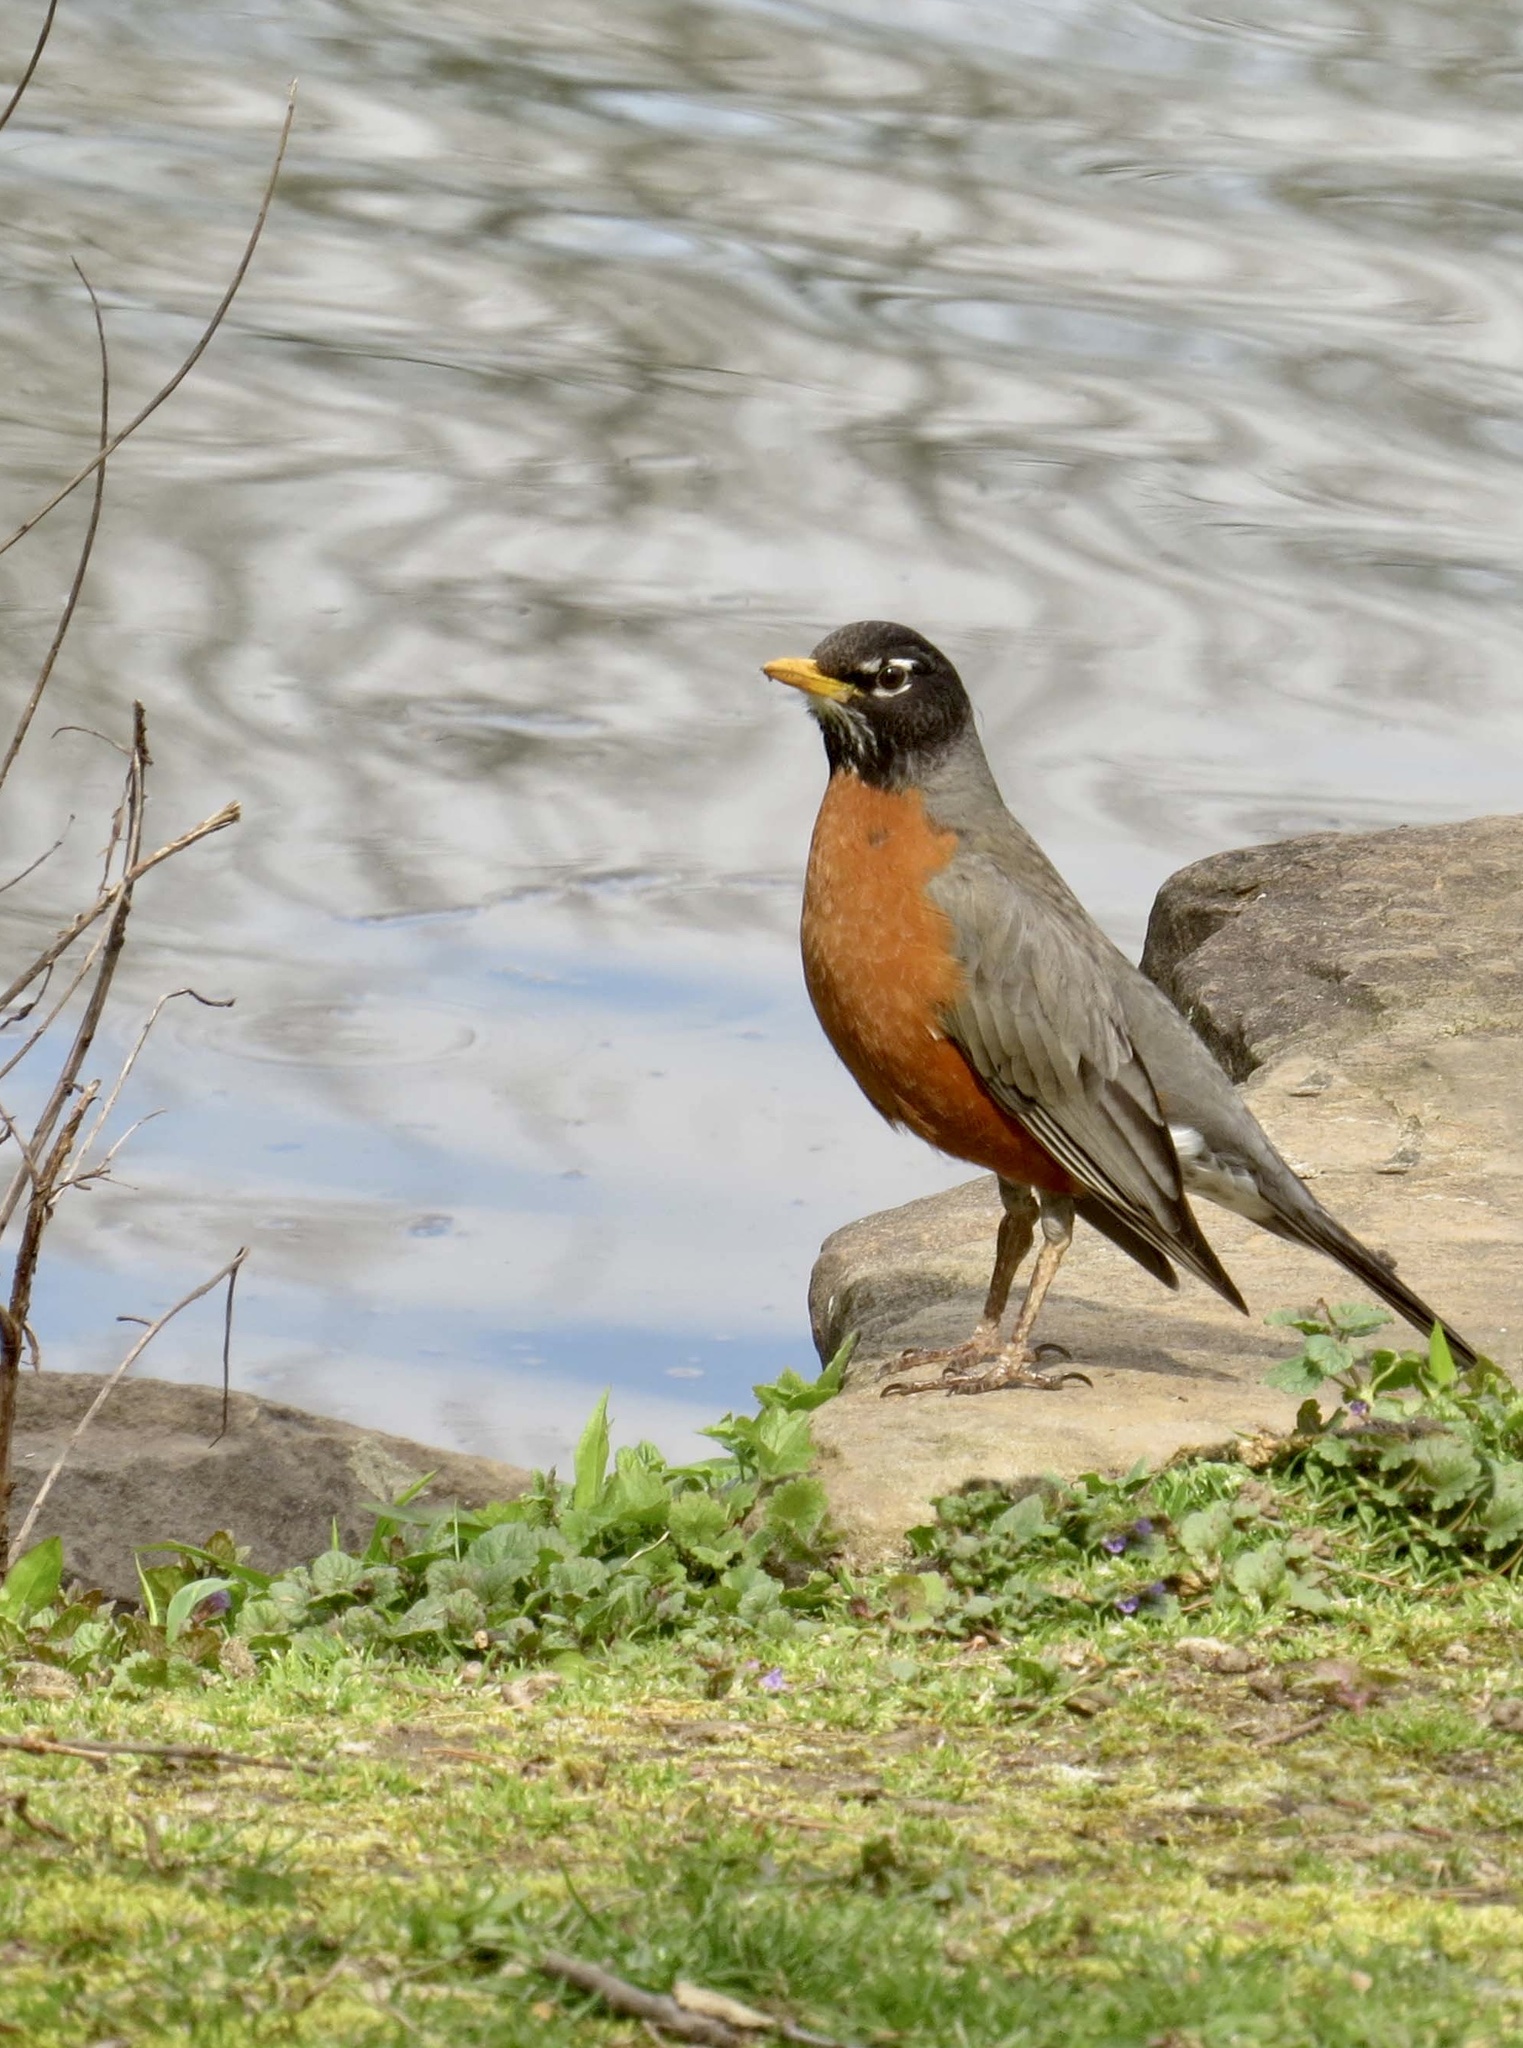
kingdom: Animalia
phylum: Chordata
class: Aves
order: Passeriformes
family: Turdidae
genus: Turdus
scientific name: Turdus migratorius
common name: American robin
